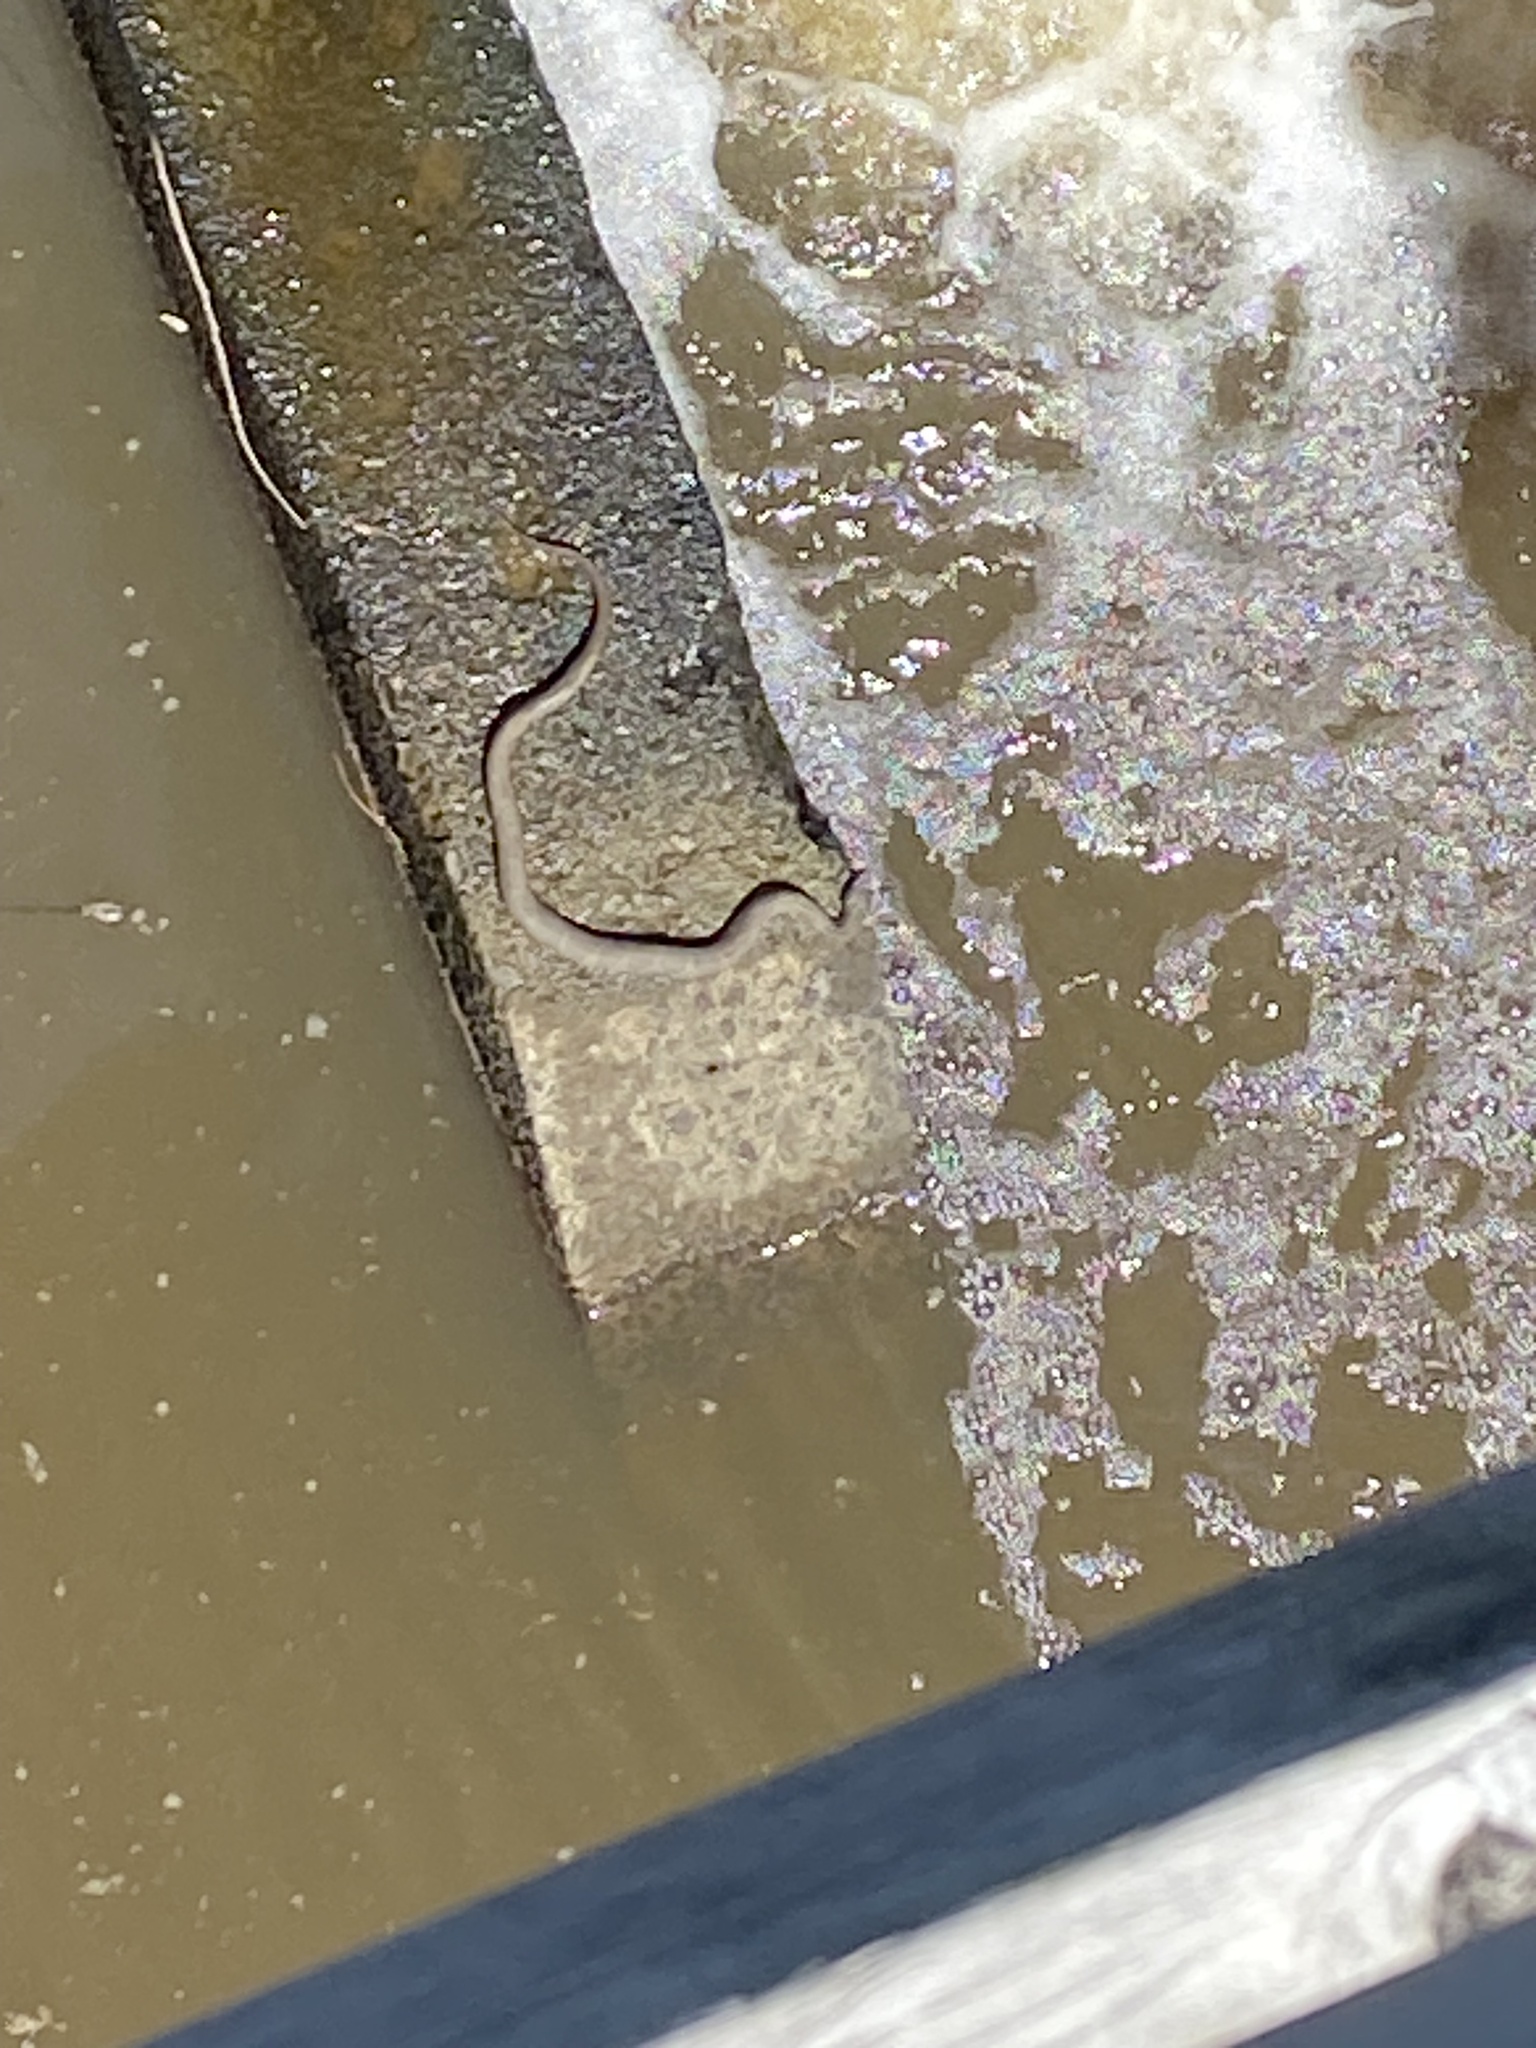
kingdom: Animalia
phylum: Chordata
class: Squamata
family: Colubridae
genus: Nerodia
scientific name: Nerodia sipedon
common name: Northern water snake
